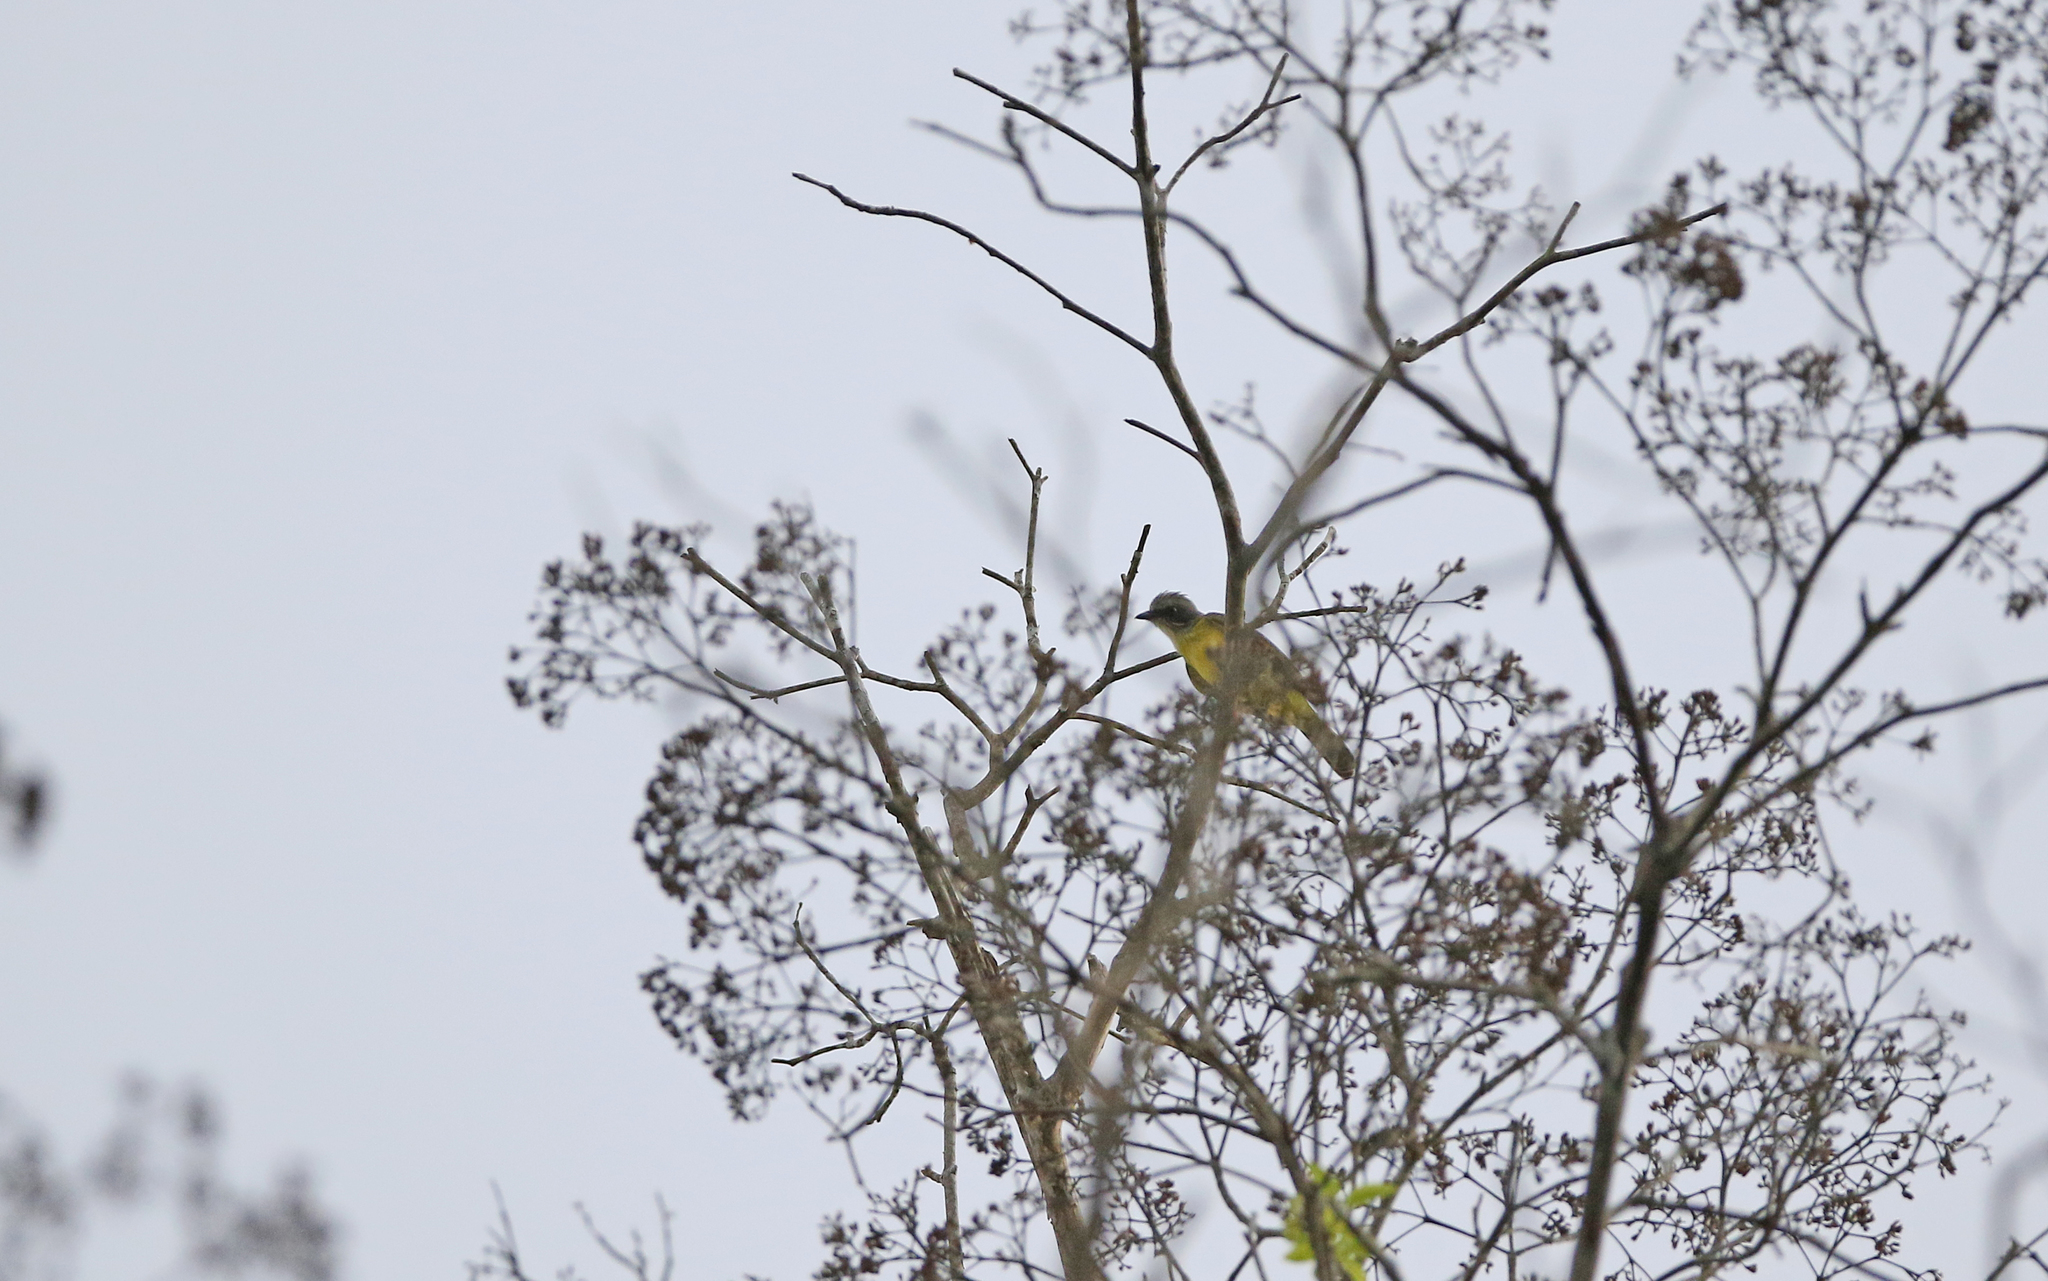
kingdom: Animalia
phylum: Chordata
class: Aves
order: Passeriformes
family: Tyrannidae
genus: Myiozetetes
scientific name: Myiozetetes granadensis
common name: Gray-capped flycatcher
